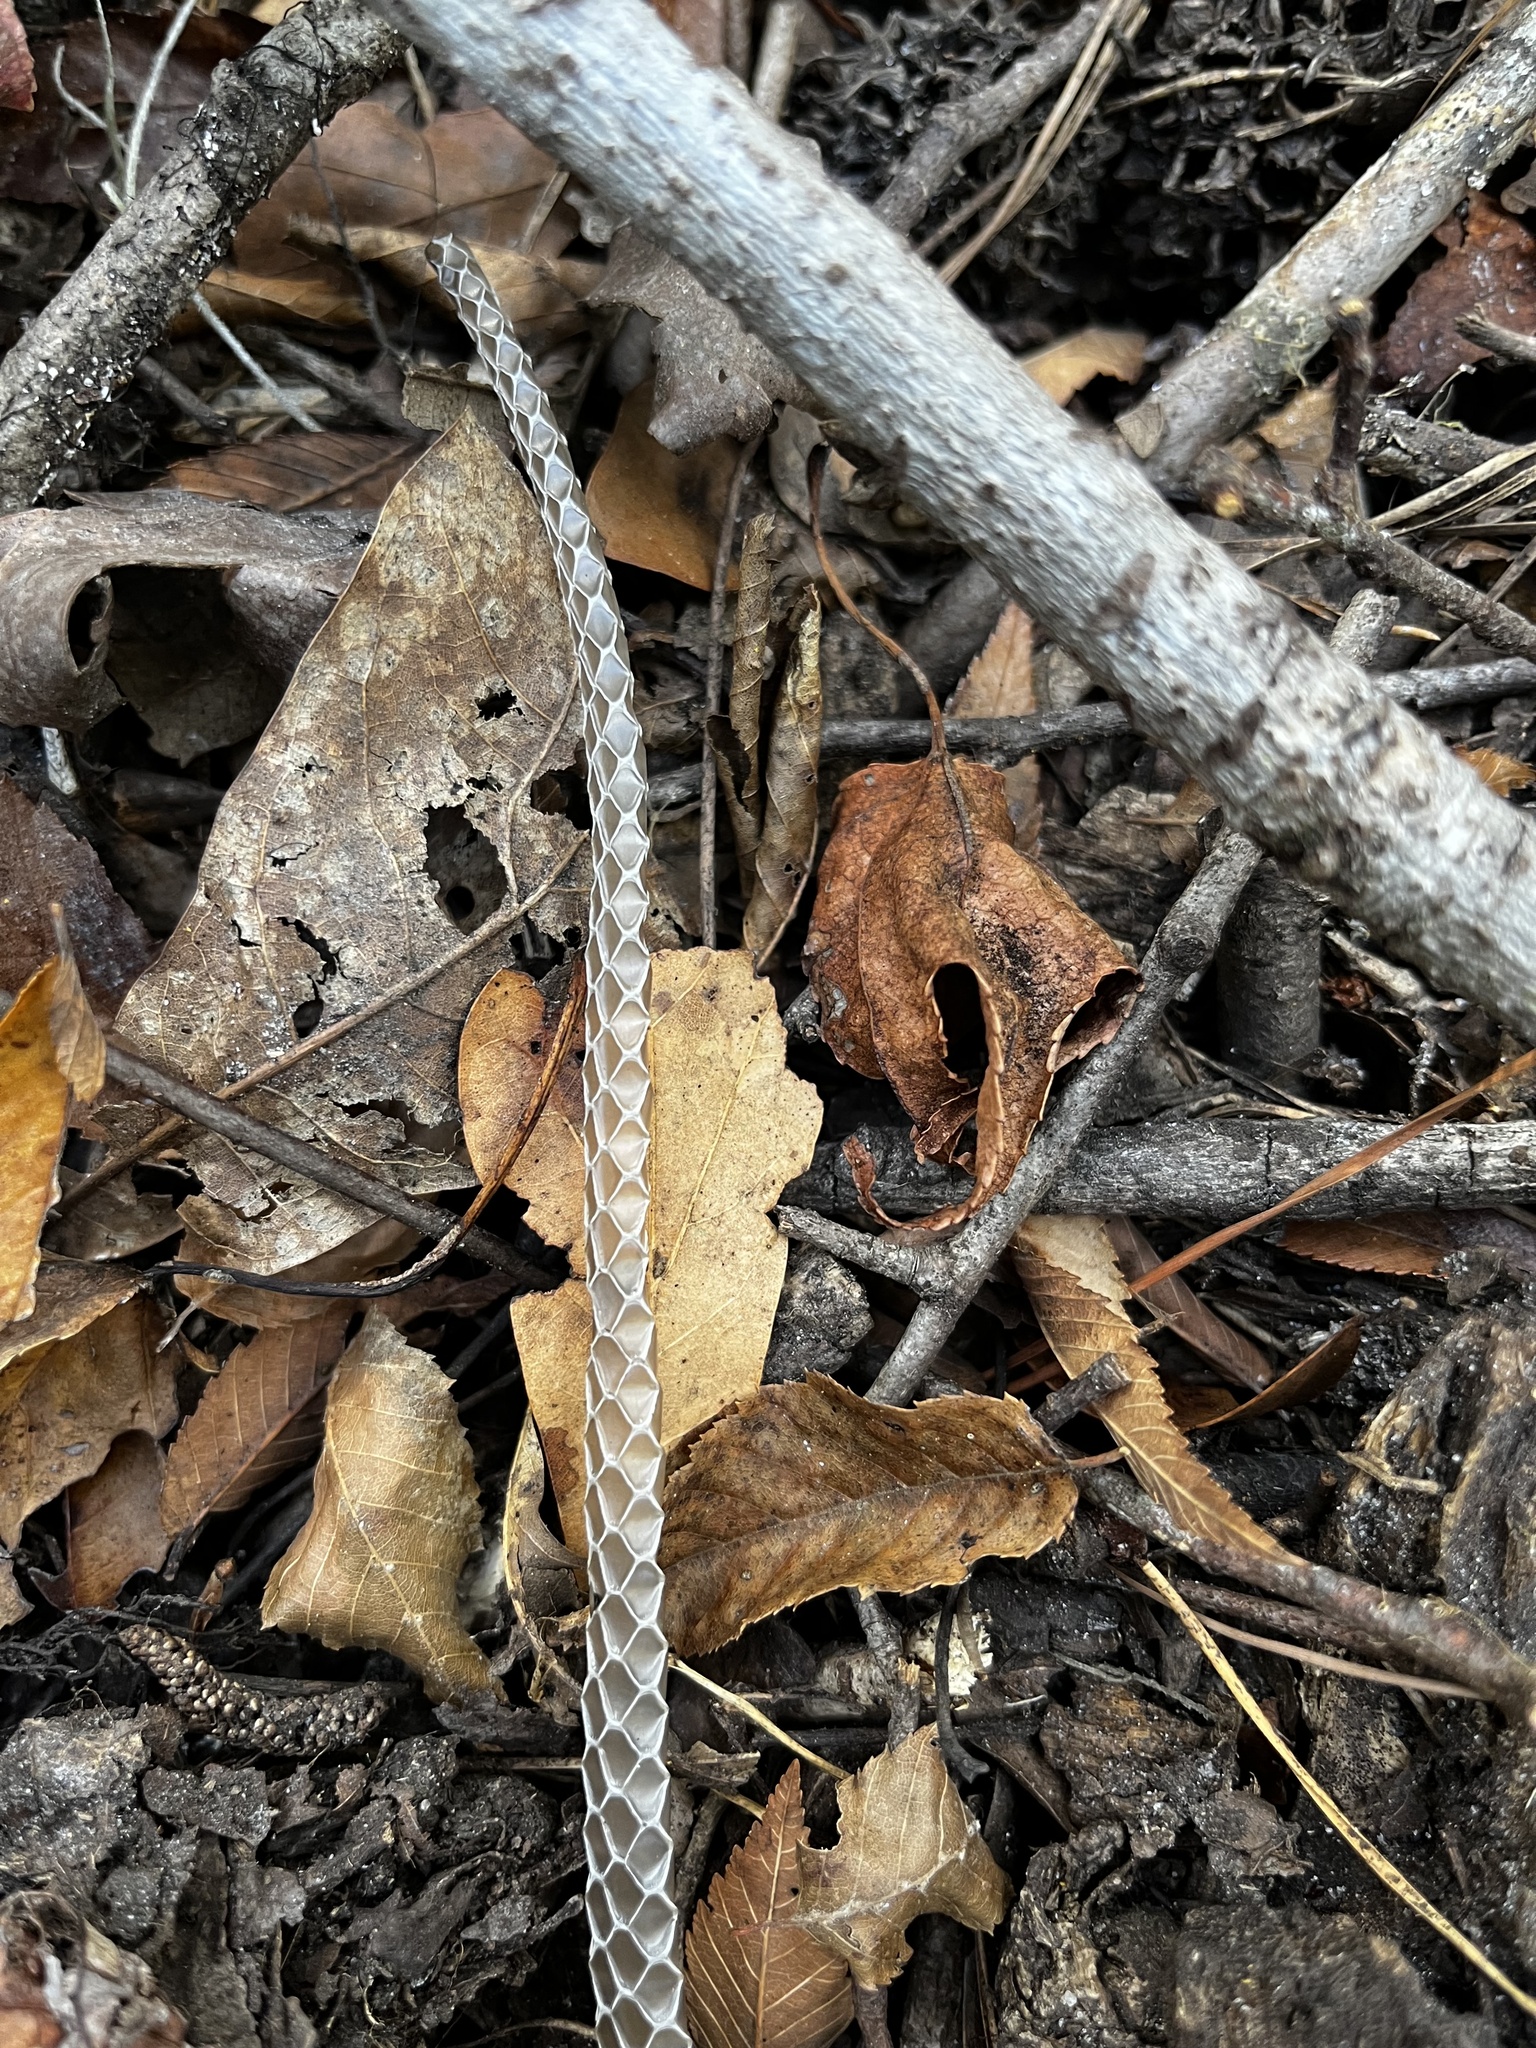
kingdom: Animalia
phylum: Chordata
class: Squamata
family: Colubridae
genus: Masticophis
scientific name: Masticophis flagellum
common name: Coachwhip
